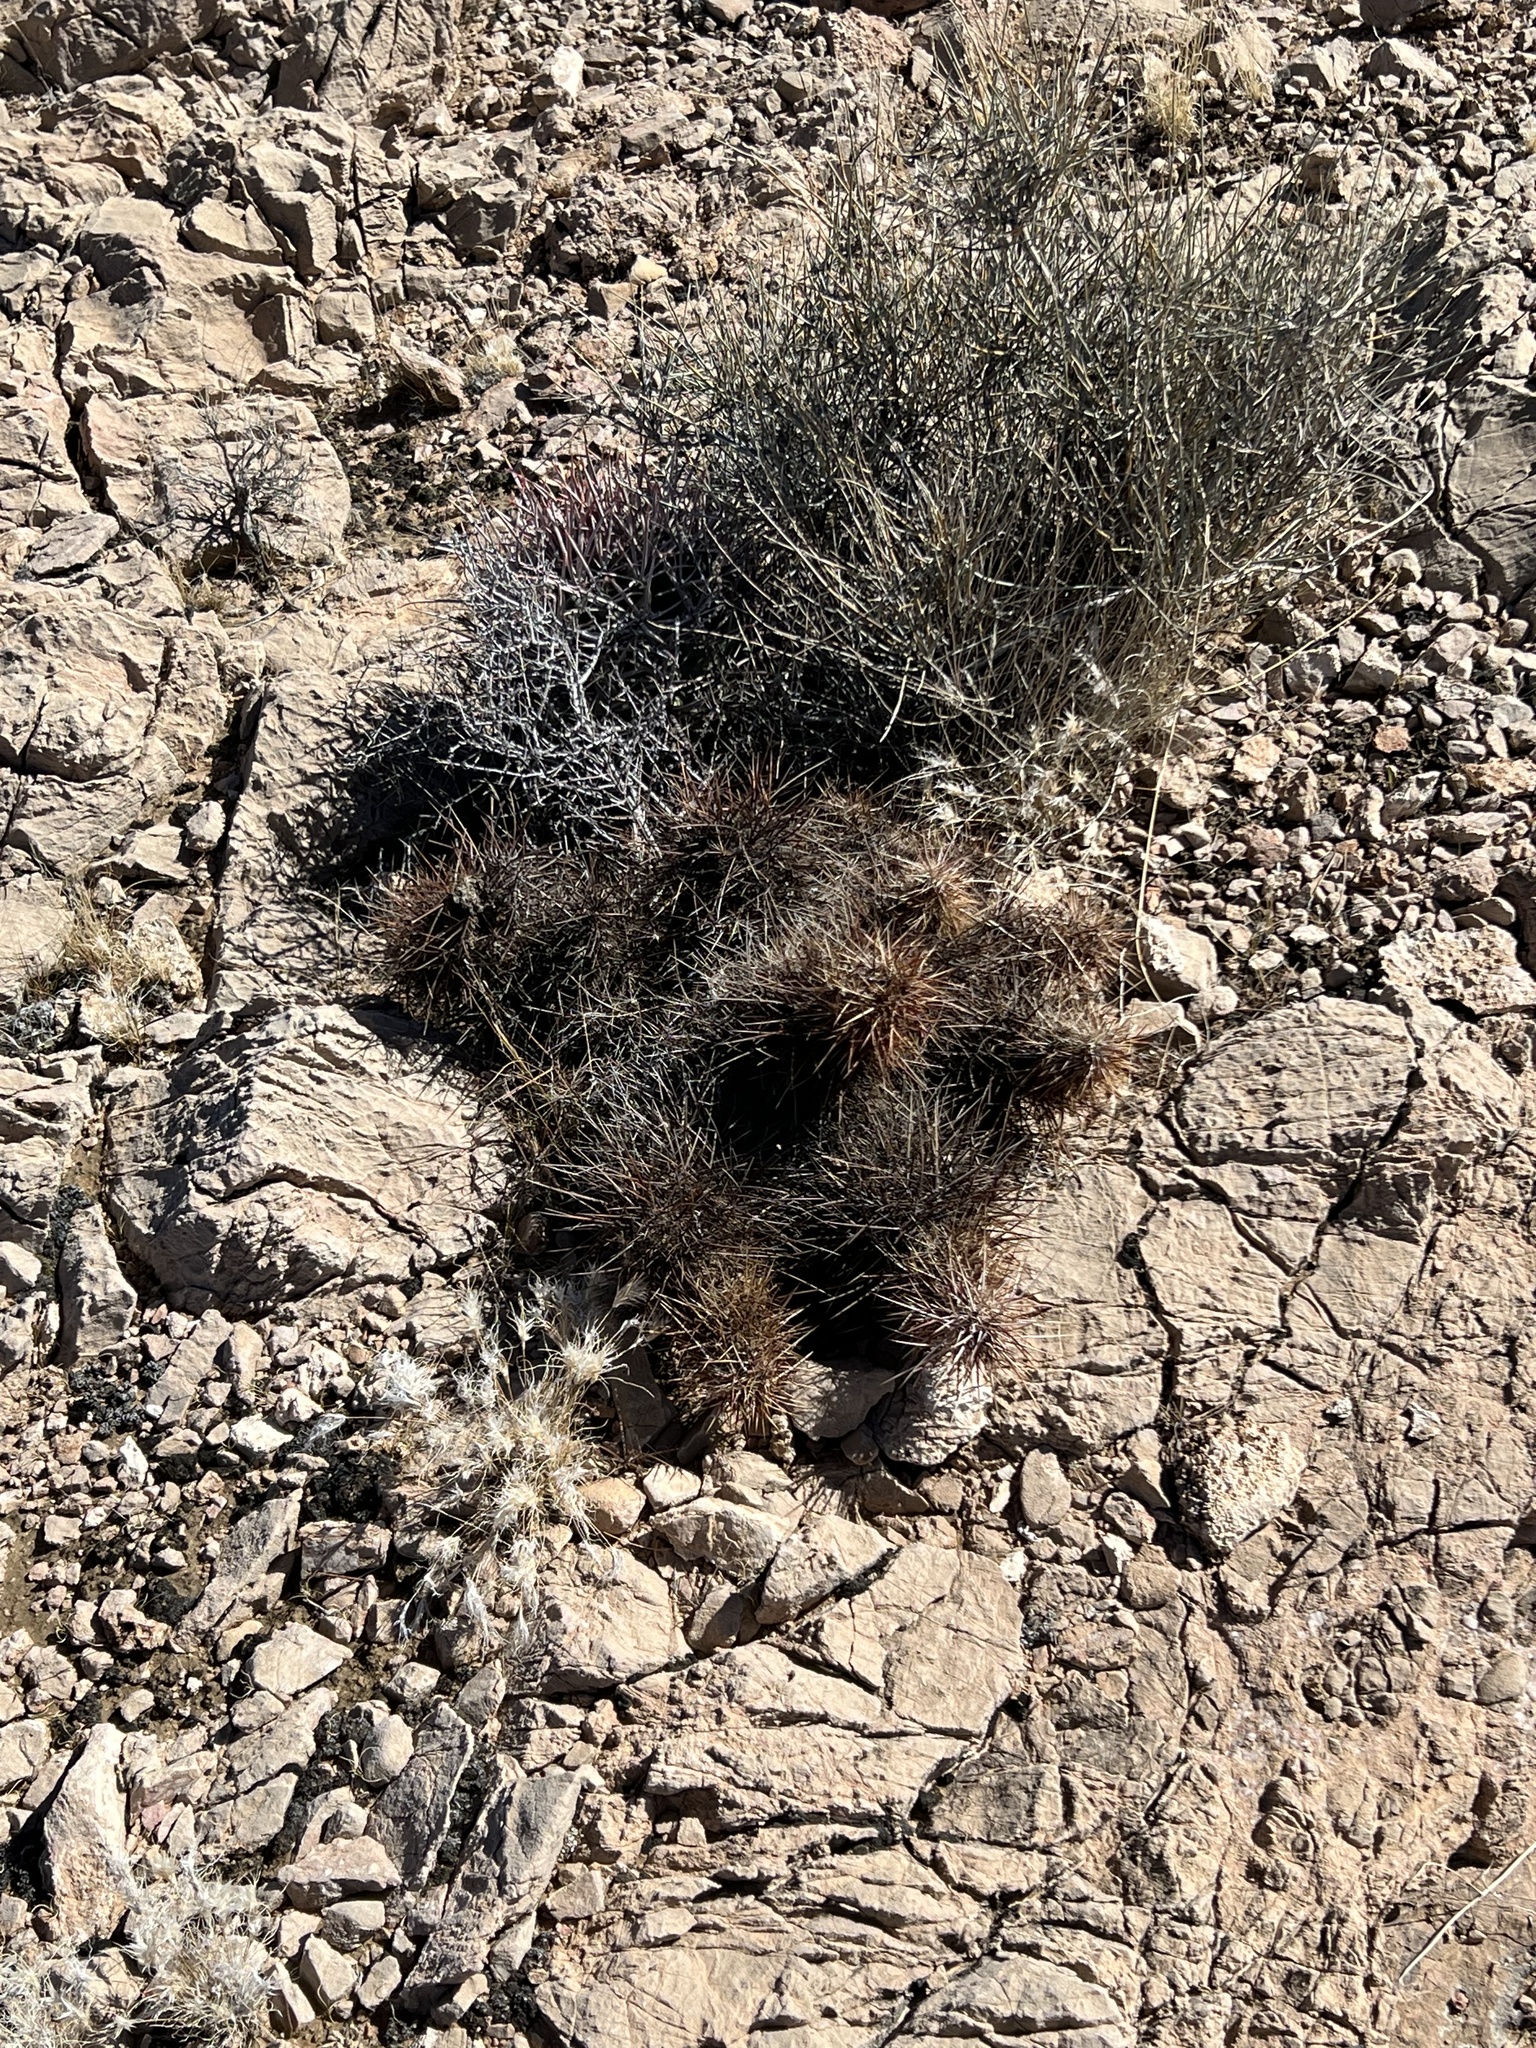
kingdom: Plantae
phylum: Tracheophyta
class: Magnoliopsida
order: Caryophyllales
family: Cactaceae
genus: Echinocereus
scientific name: Echinocereus engelmannii
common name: Engelmann's hedgehog cactus
